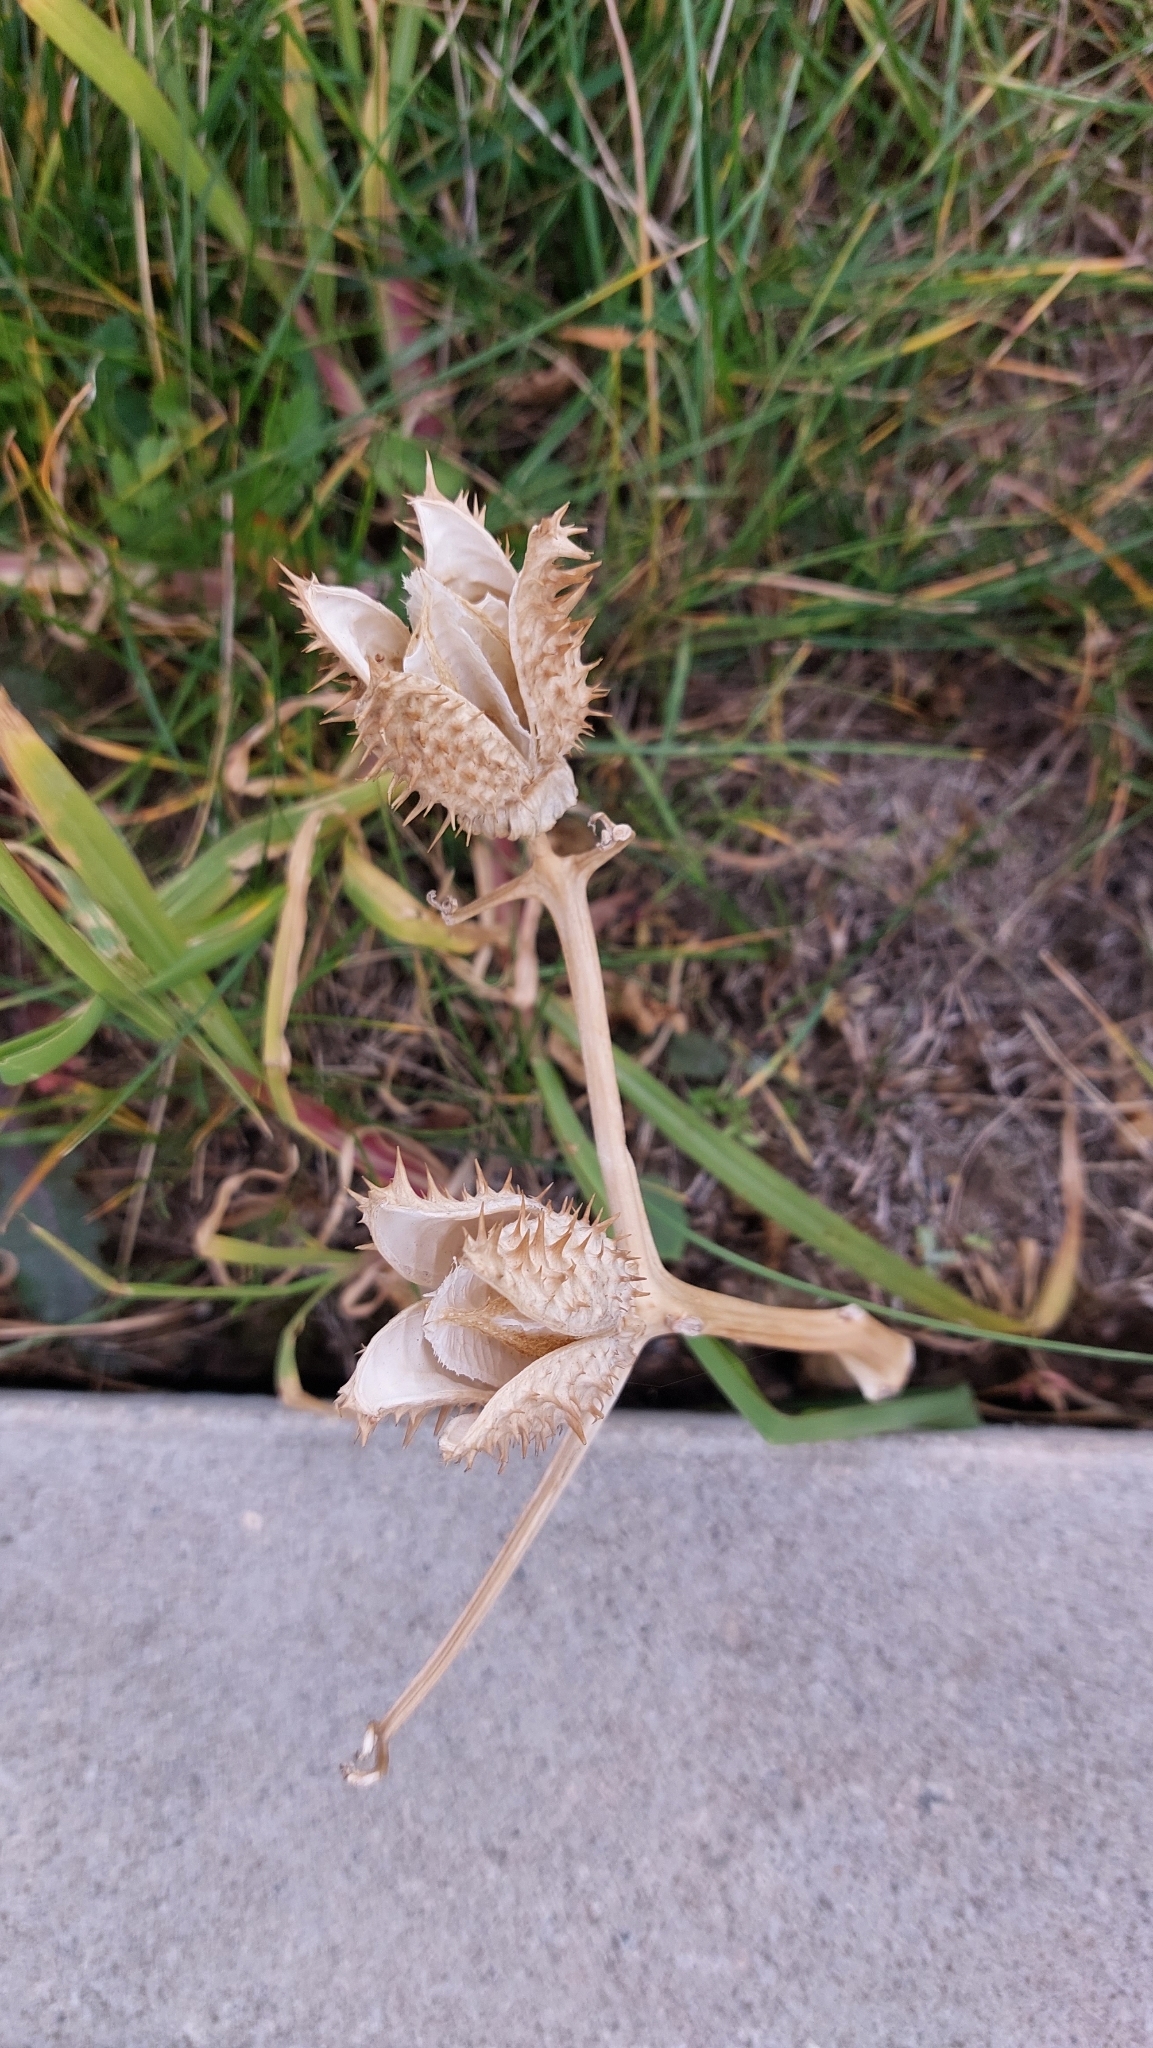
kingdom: Plantae
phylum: Tracheophyta
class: Magnoliopsida
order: Solanales
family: Solanaceae
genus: Datura
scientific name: Datura stramonium
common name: Thorn-apple
